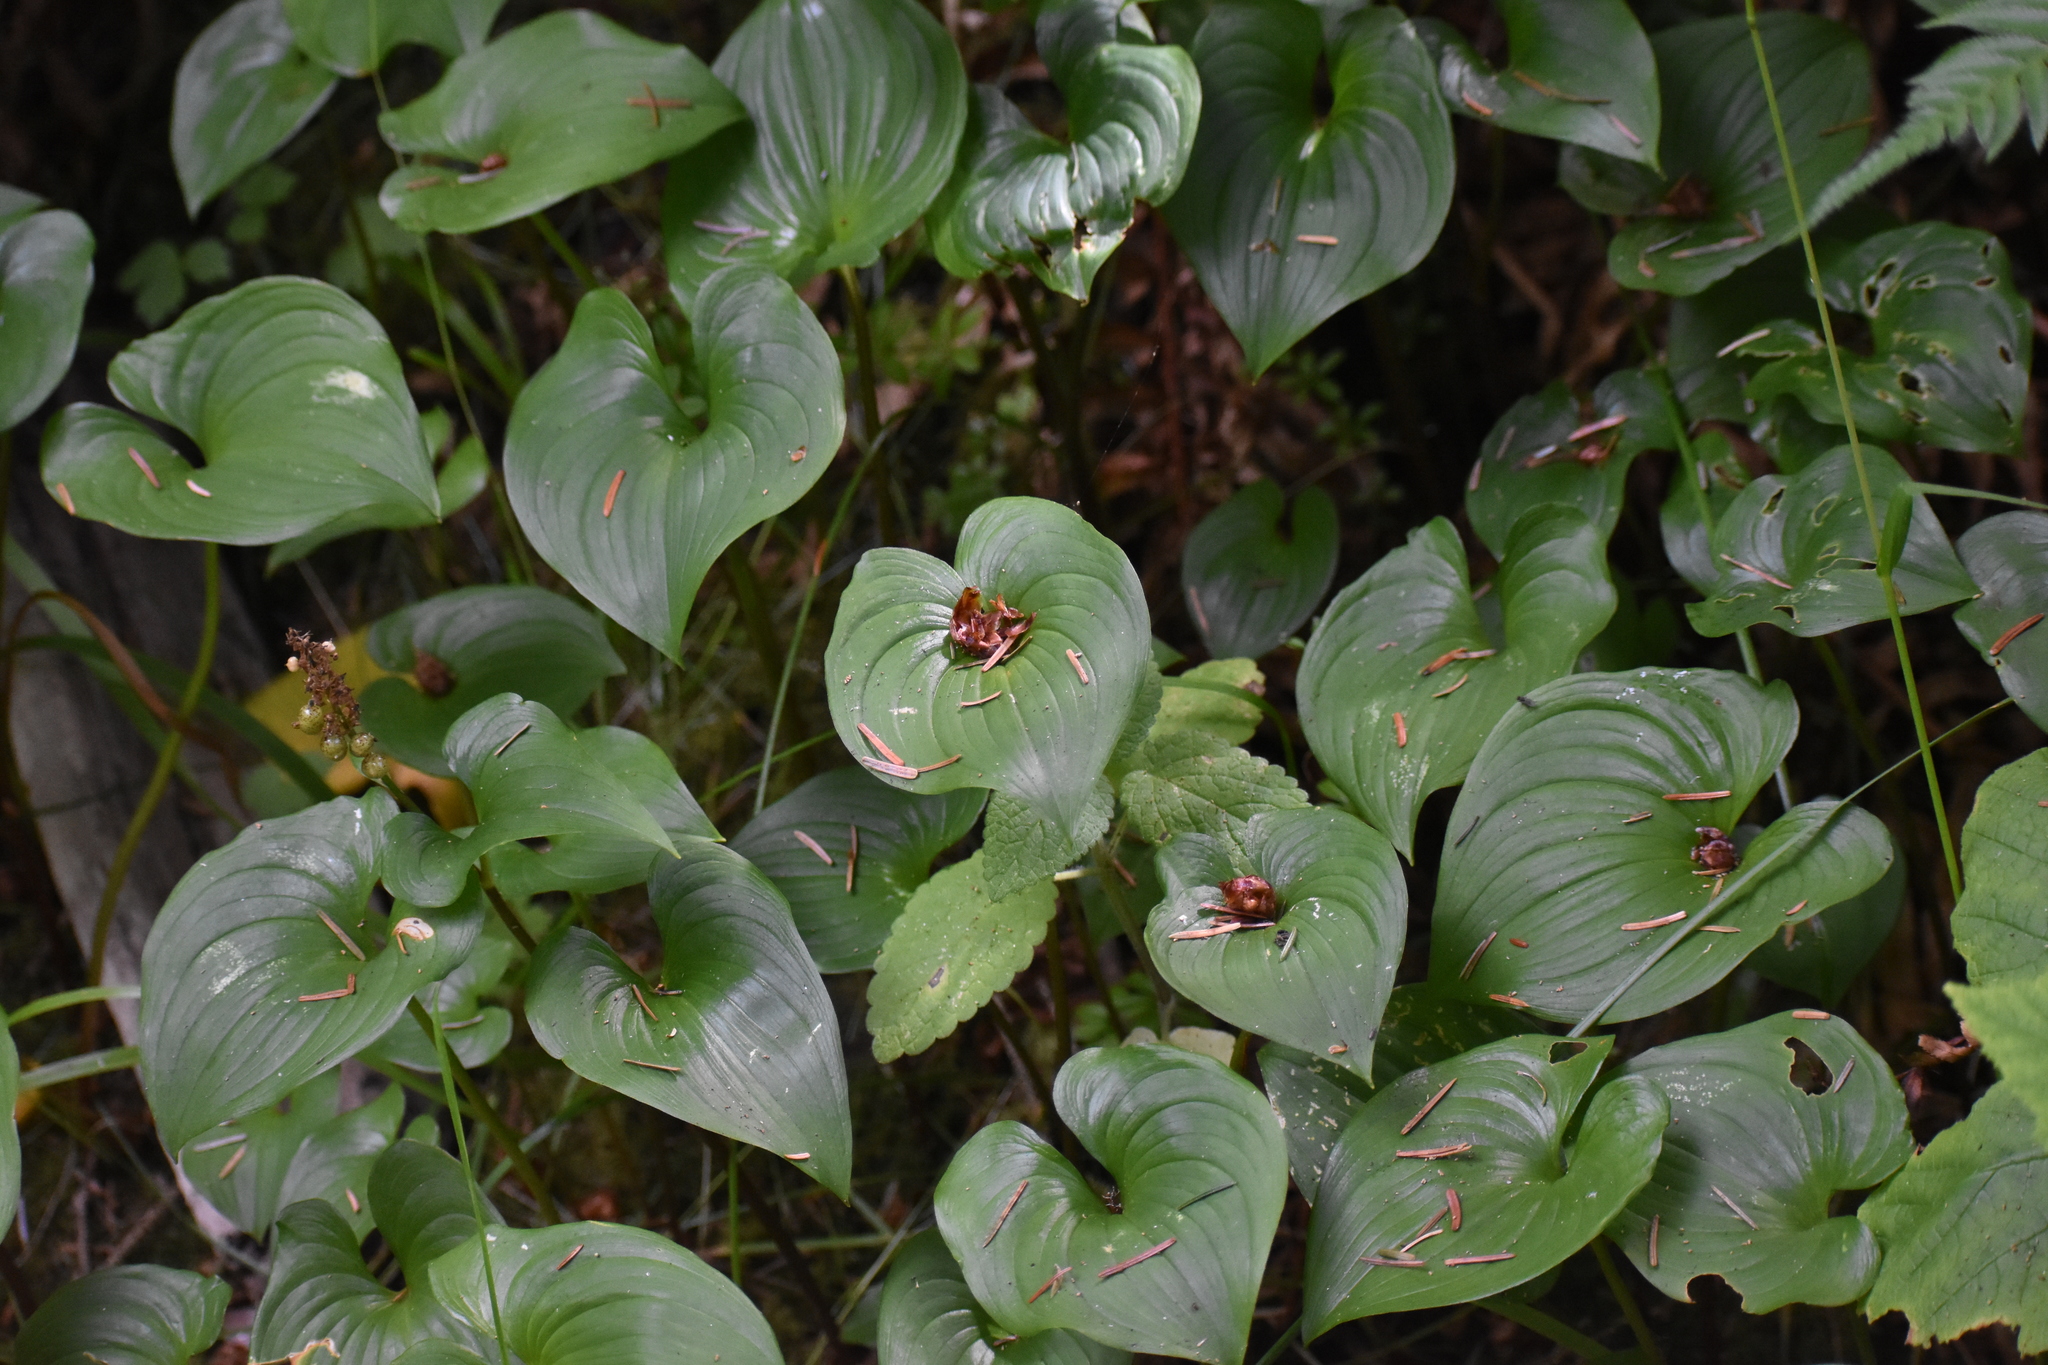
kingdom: Plantae
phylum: Tracheophyta
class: Liliopsida
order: Asparagales
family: Asparagaceae
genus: Maianthemum
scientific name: Maianthemum dilatatum
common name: False lily-of-the-valley
